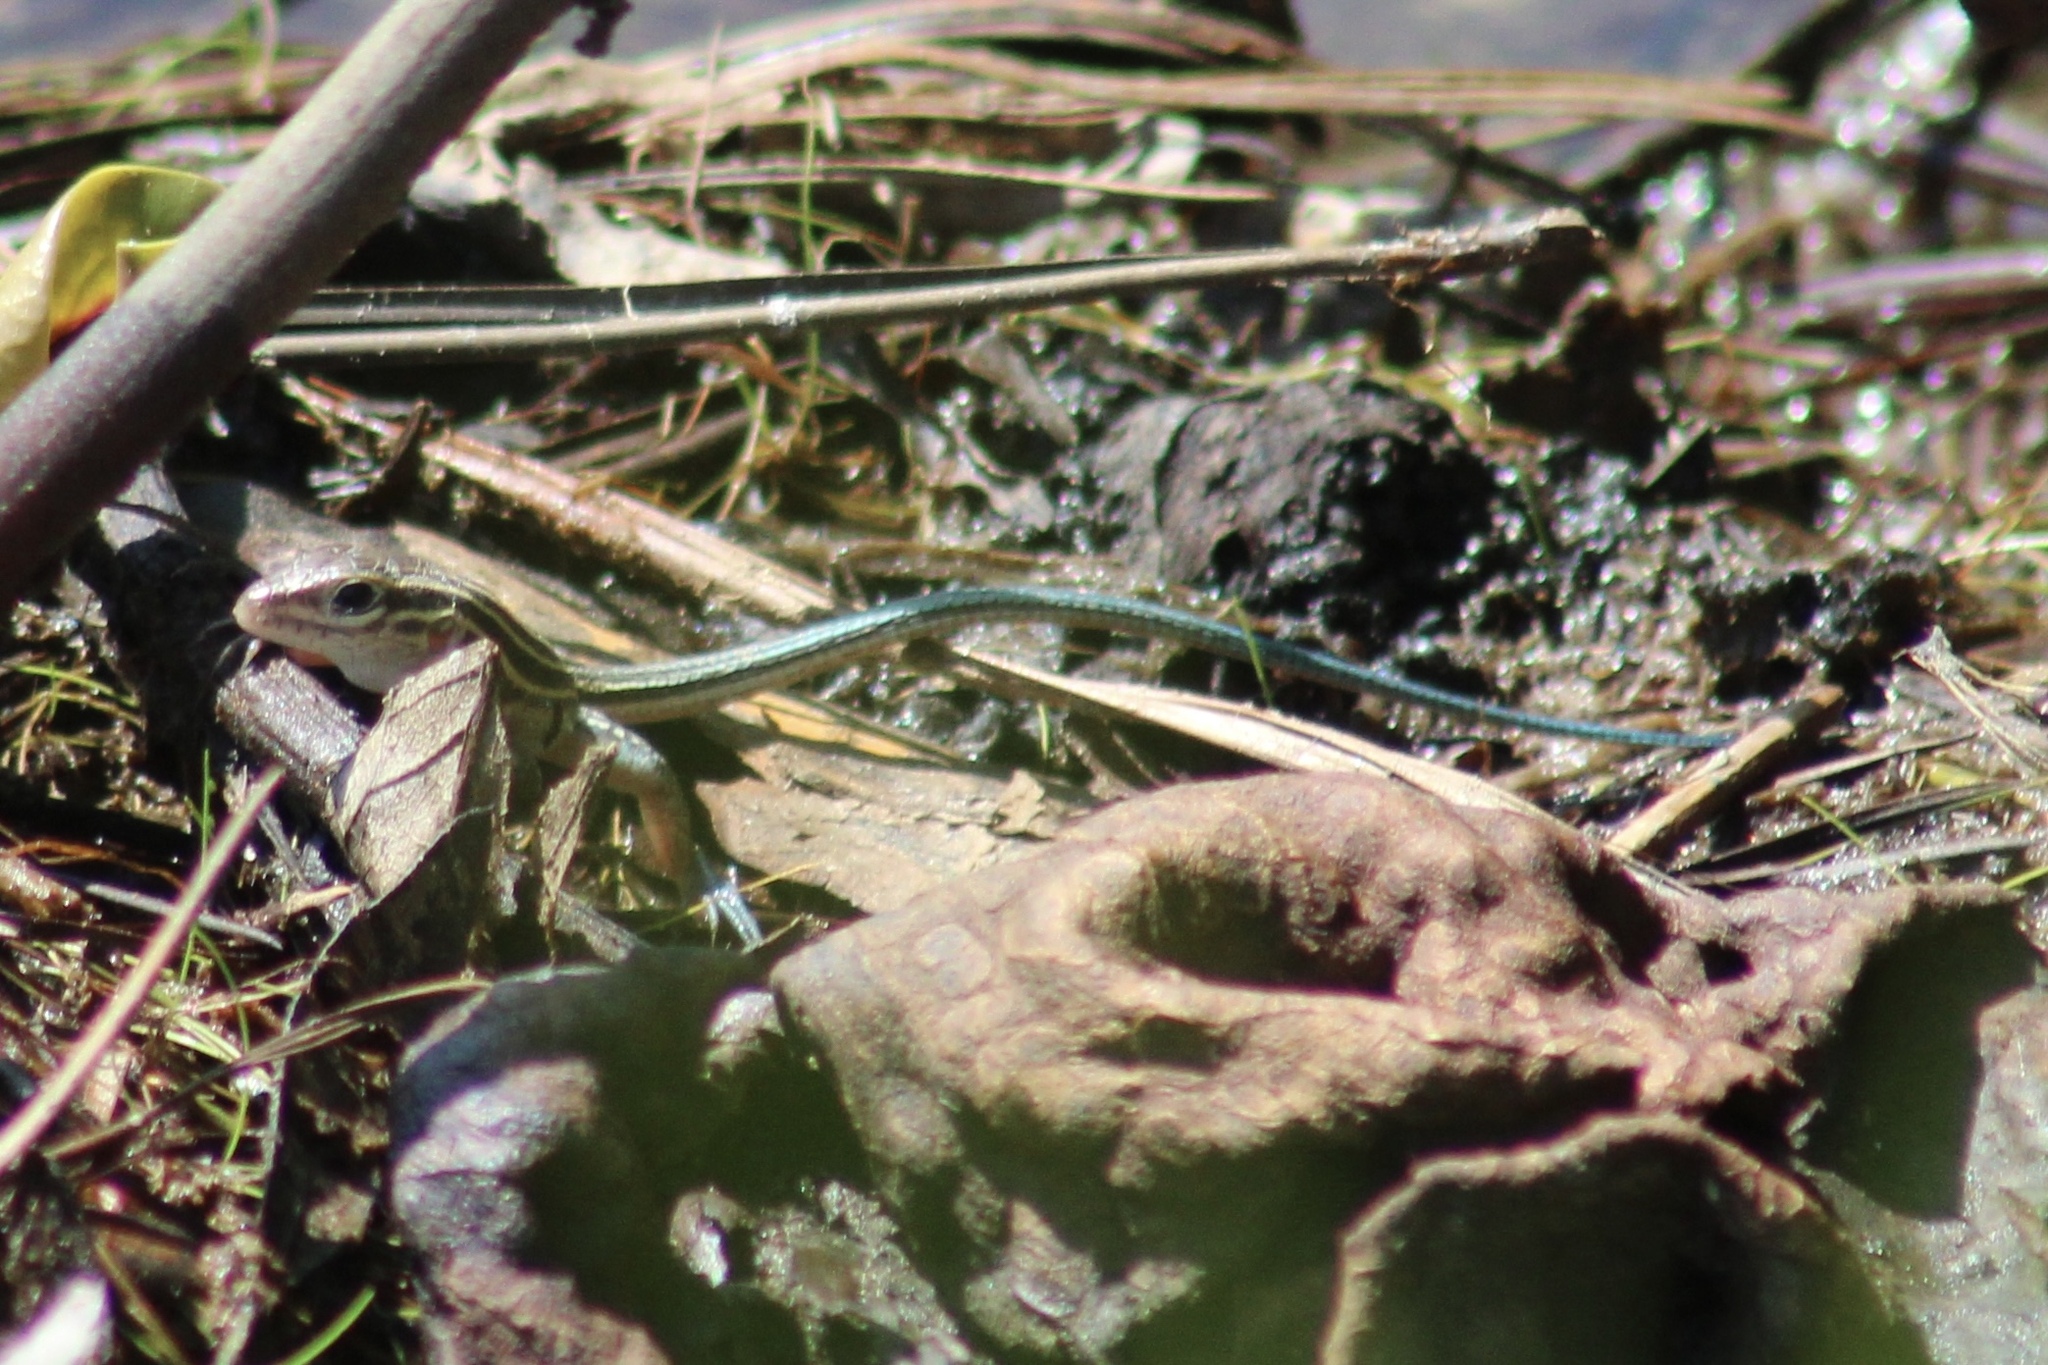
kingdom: Animalia
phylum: Chordata
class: Squamata
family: Teiidae
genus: Aspidoscelis
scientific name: Aspidoscelis sexlineatus
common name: Six-lined racerunner
